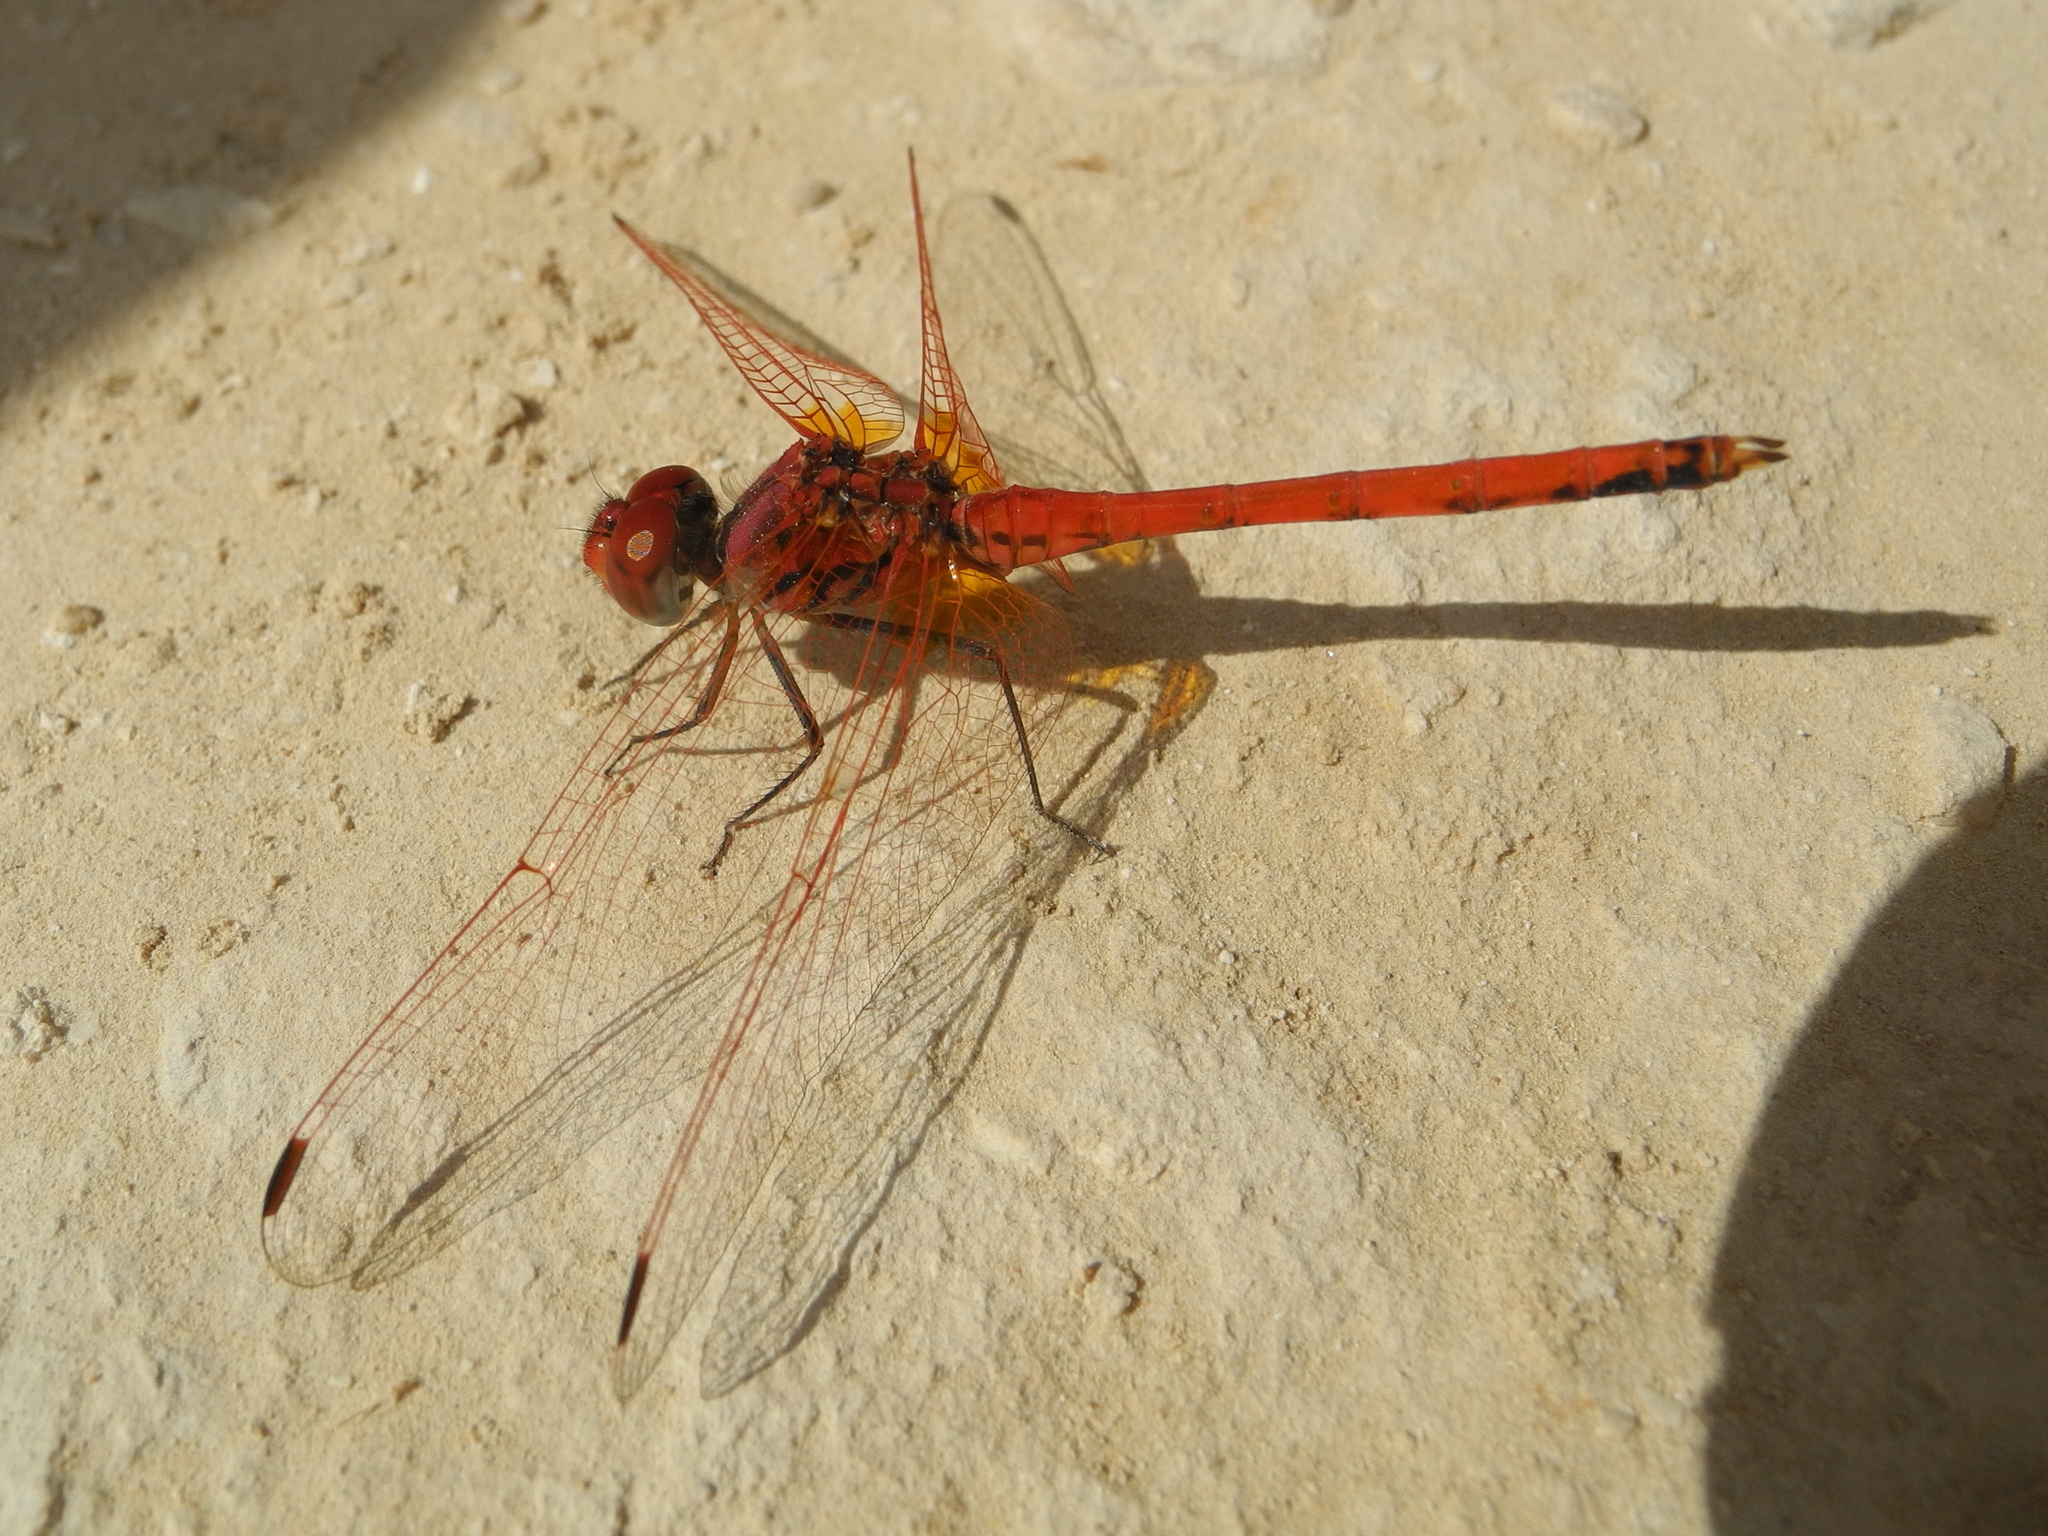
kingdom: Animalia
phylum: Arthropoda
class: Insecta
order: Odonata
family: Libellulidae
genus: Trithemis
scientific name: Trithemis arteriosa
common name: Red-veined dropwing
